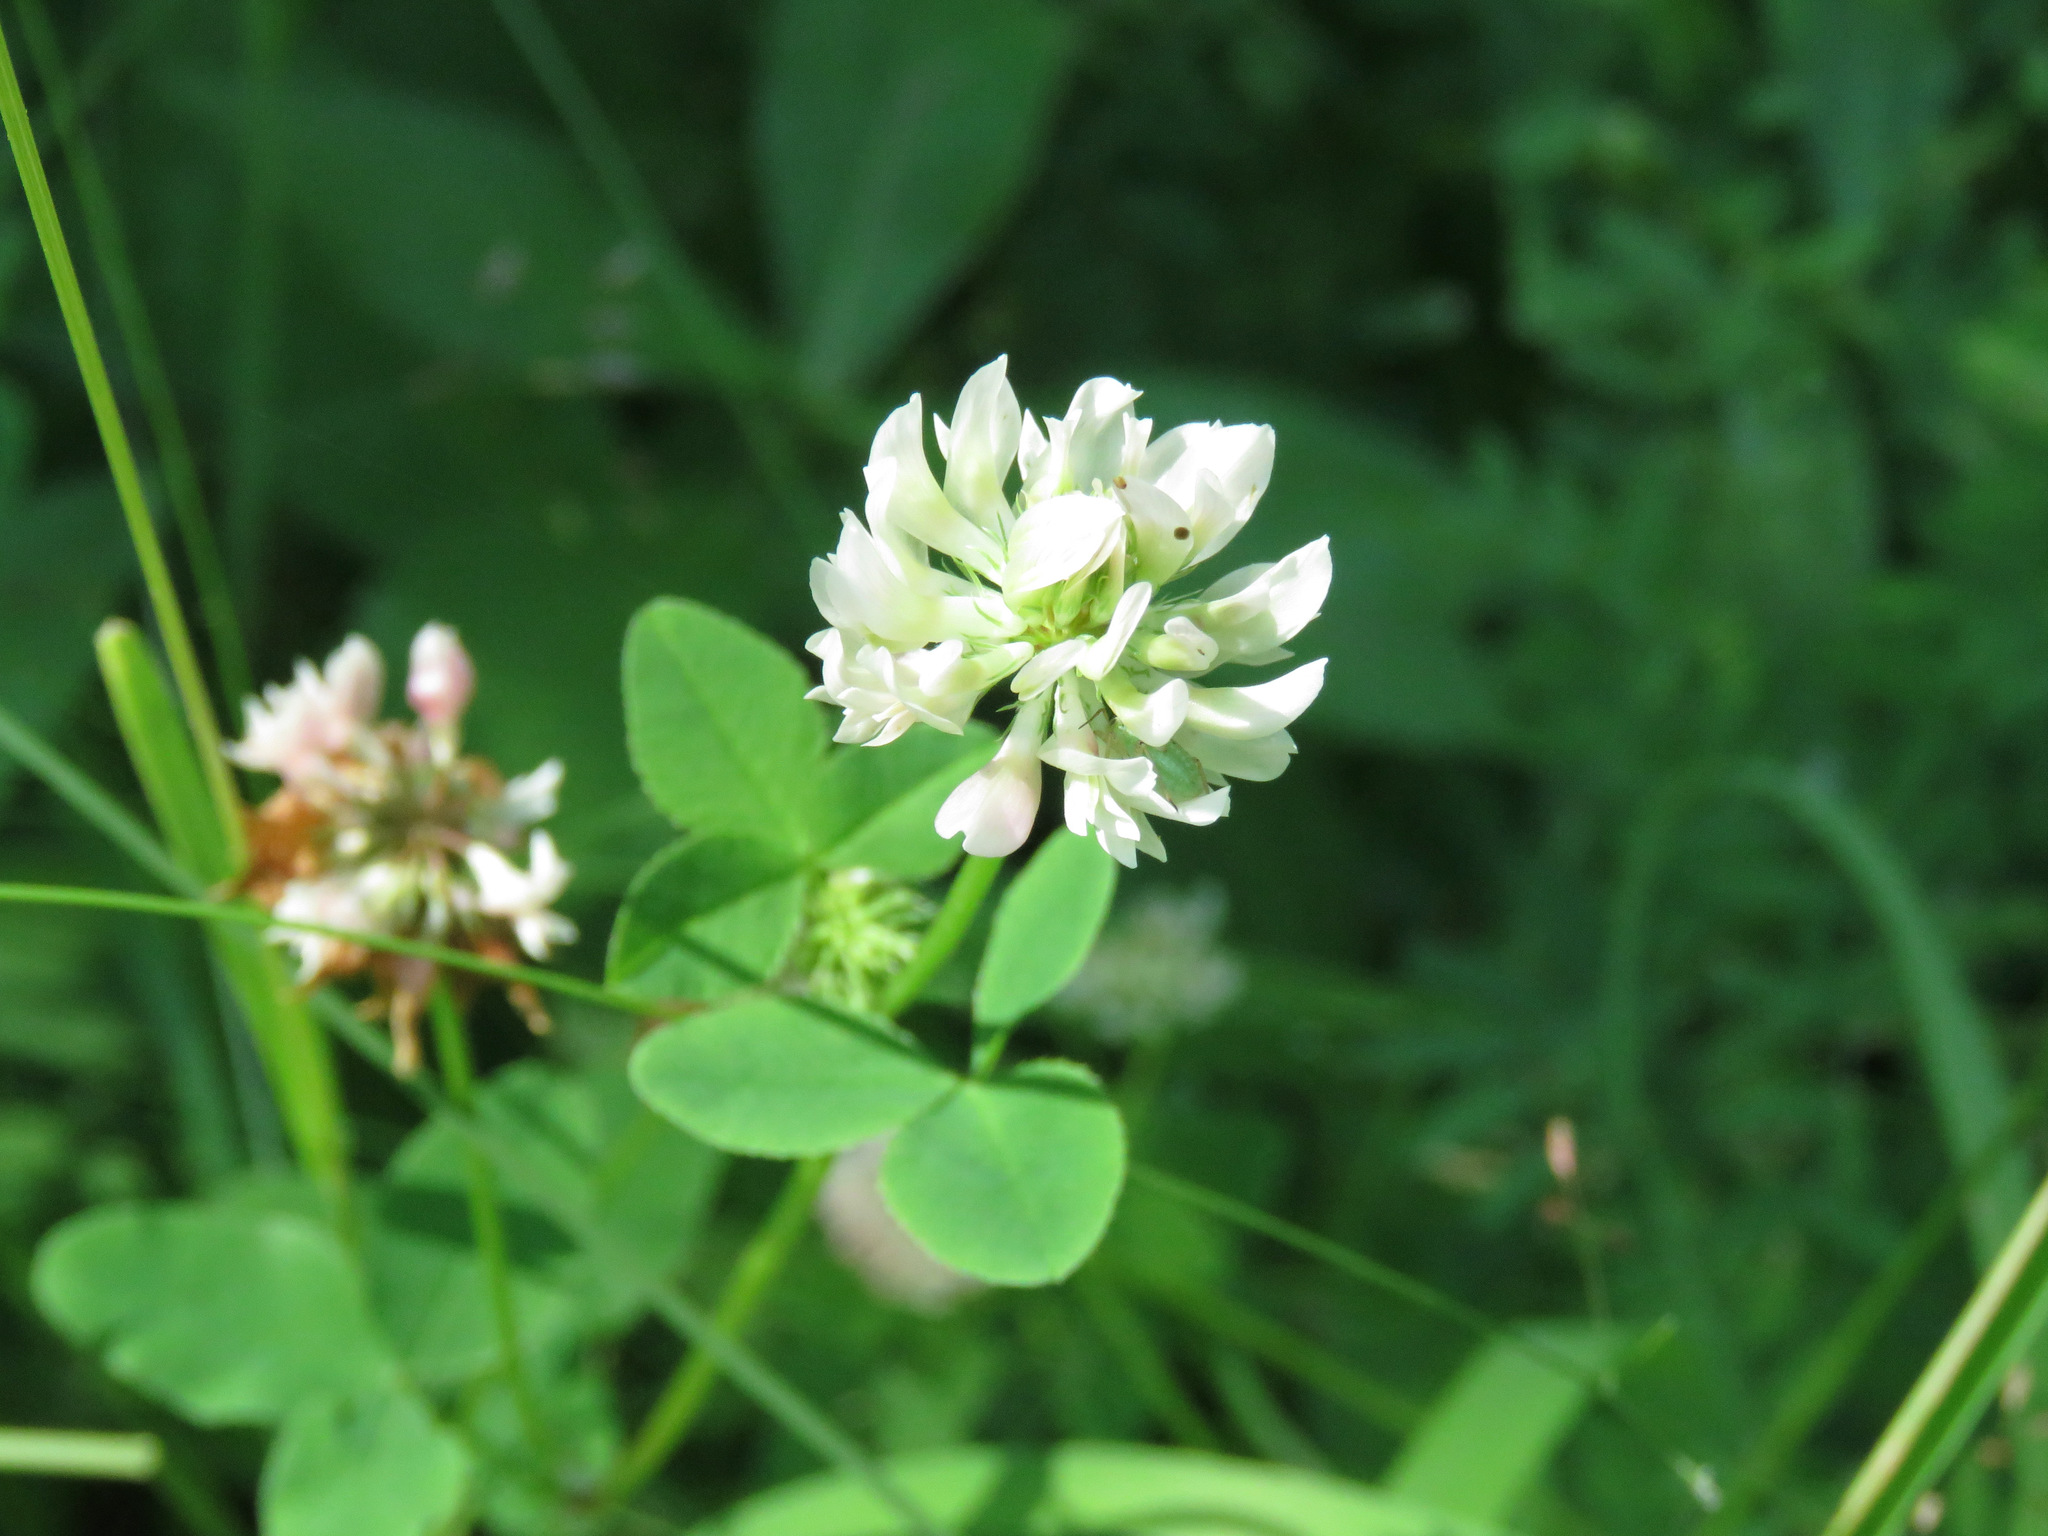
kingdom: Plantae
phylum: Tracheophyta
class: Magnoliopsida
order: Fabales
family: Fabaceae
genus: Trifolium
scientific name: Trifolium hybridum
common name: Alsike clover
